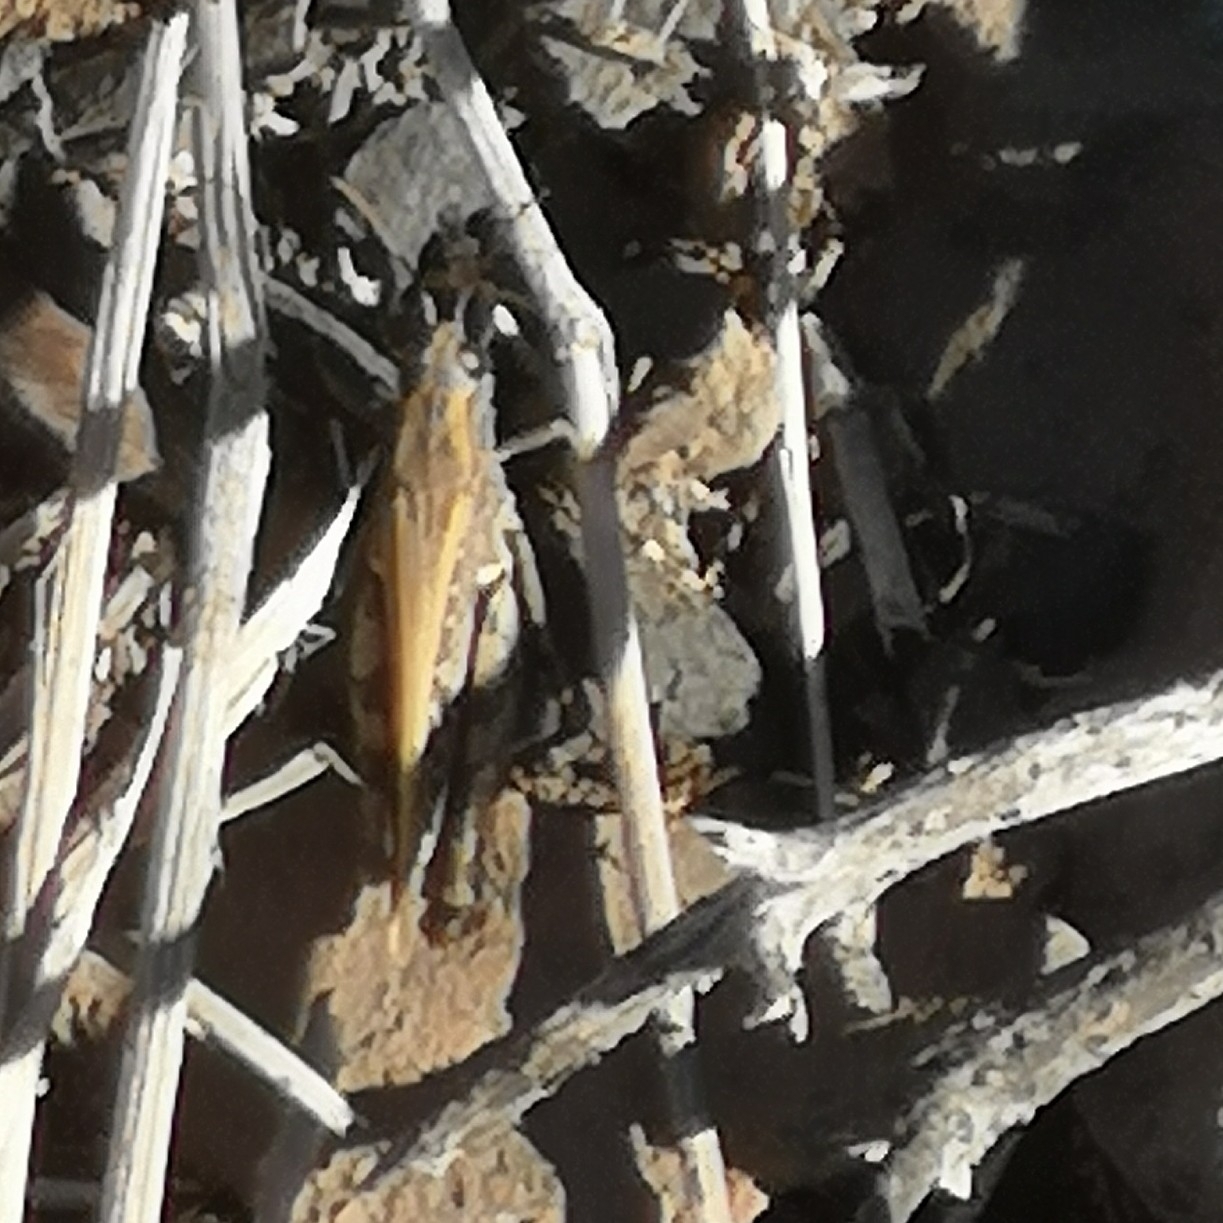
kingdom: Animalia
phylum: Arthropoda
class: Insecta
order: Orthoptera
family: Acrididae
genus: Calliptamus
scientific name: Calliptamus plebeius
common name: Canarian pincer grasshopper
